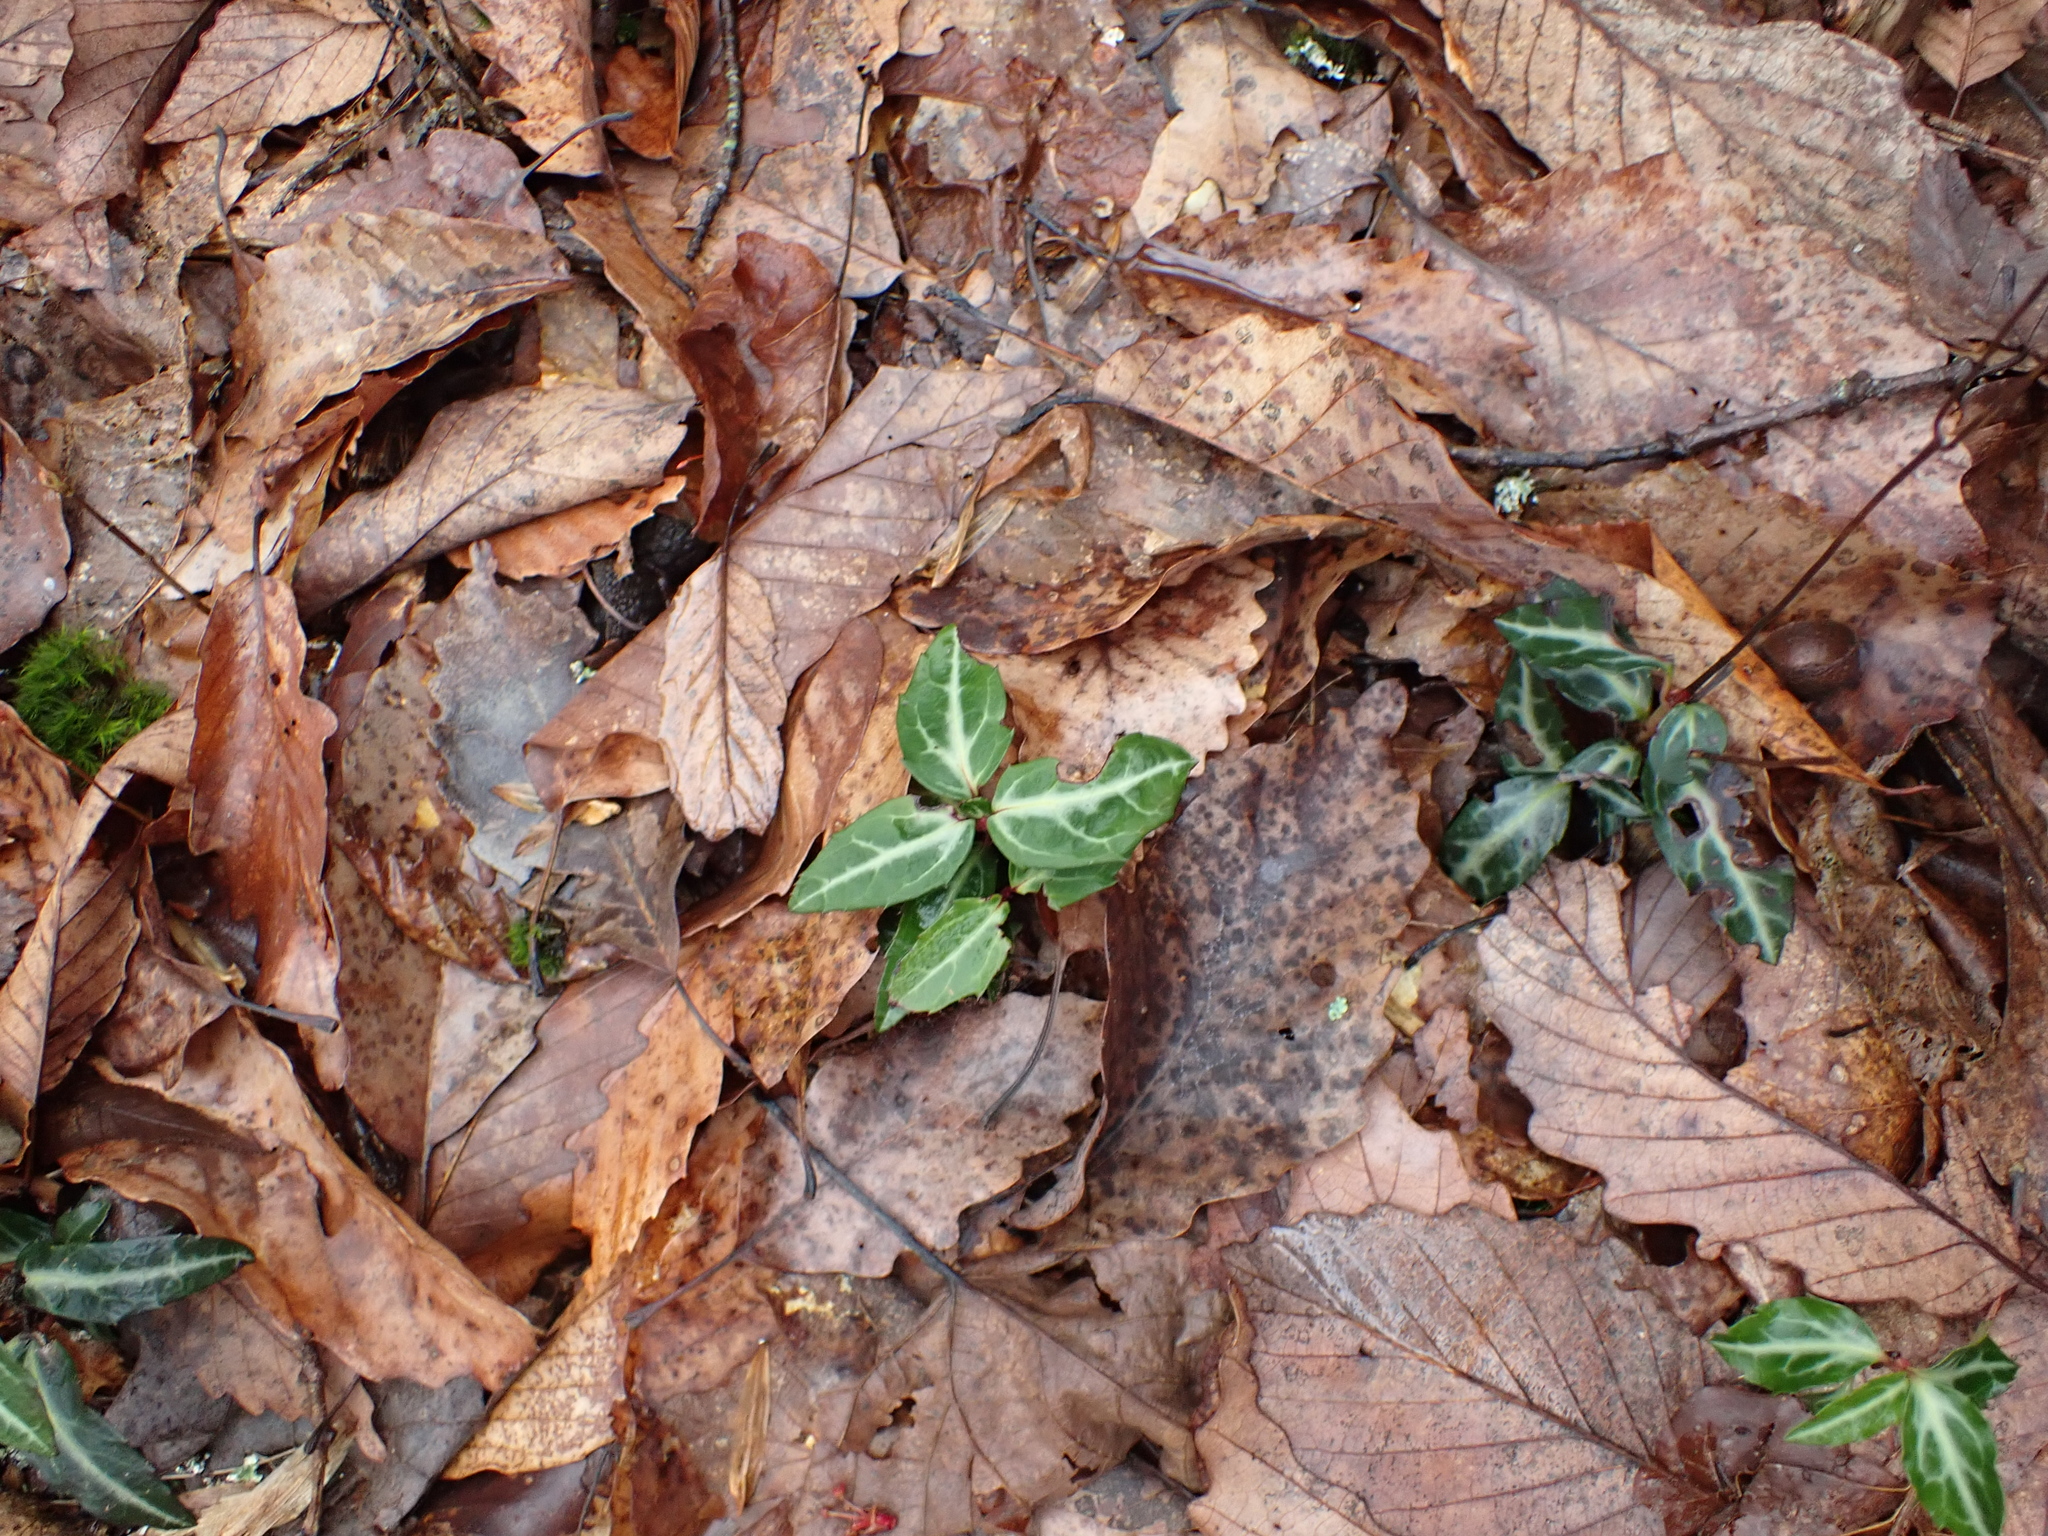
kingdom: Plantae
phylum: Tracheophyta
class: Magnoliopsida
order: Ericales
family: Ericaceae
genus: Chimaphila
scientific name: Chimaphila maculata
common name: Spotted pipsissewa
